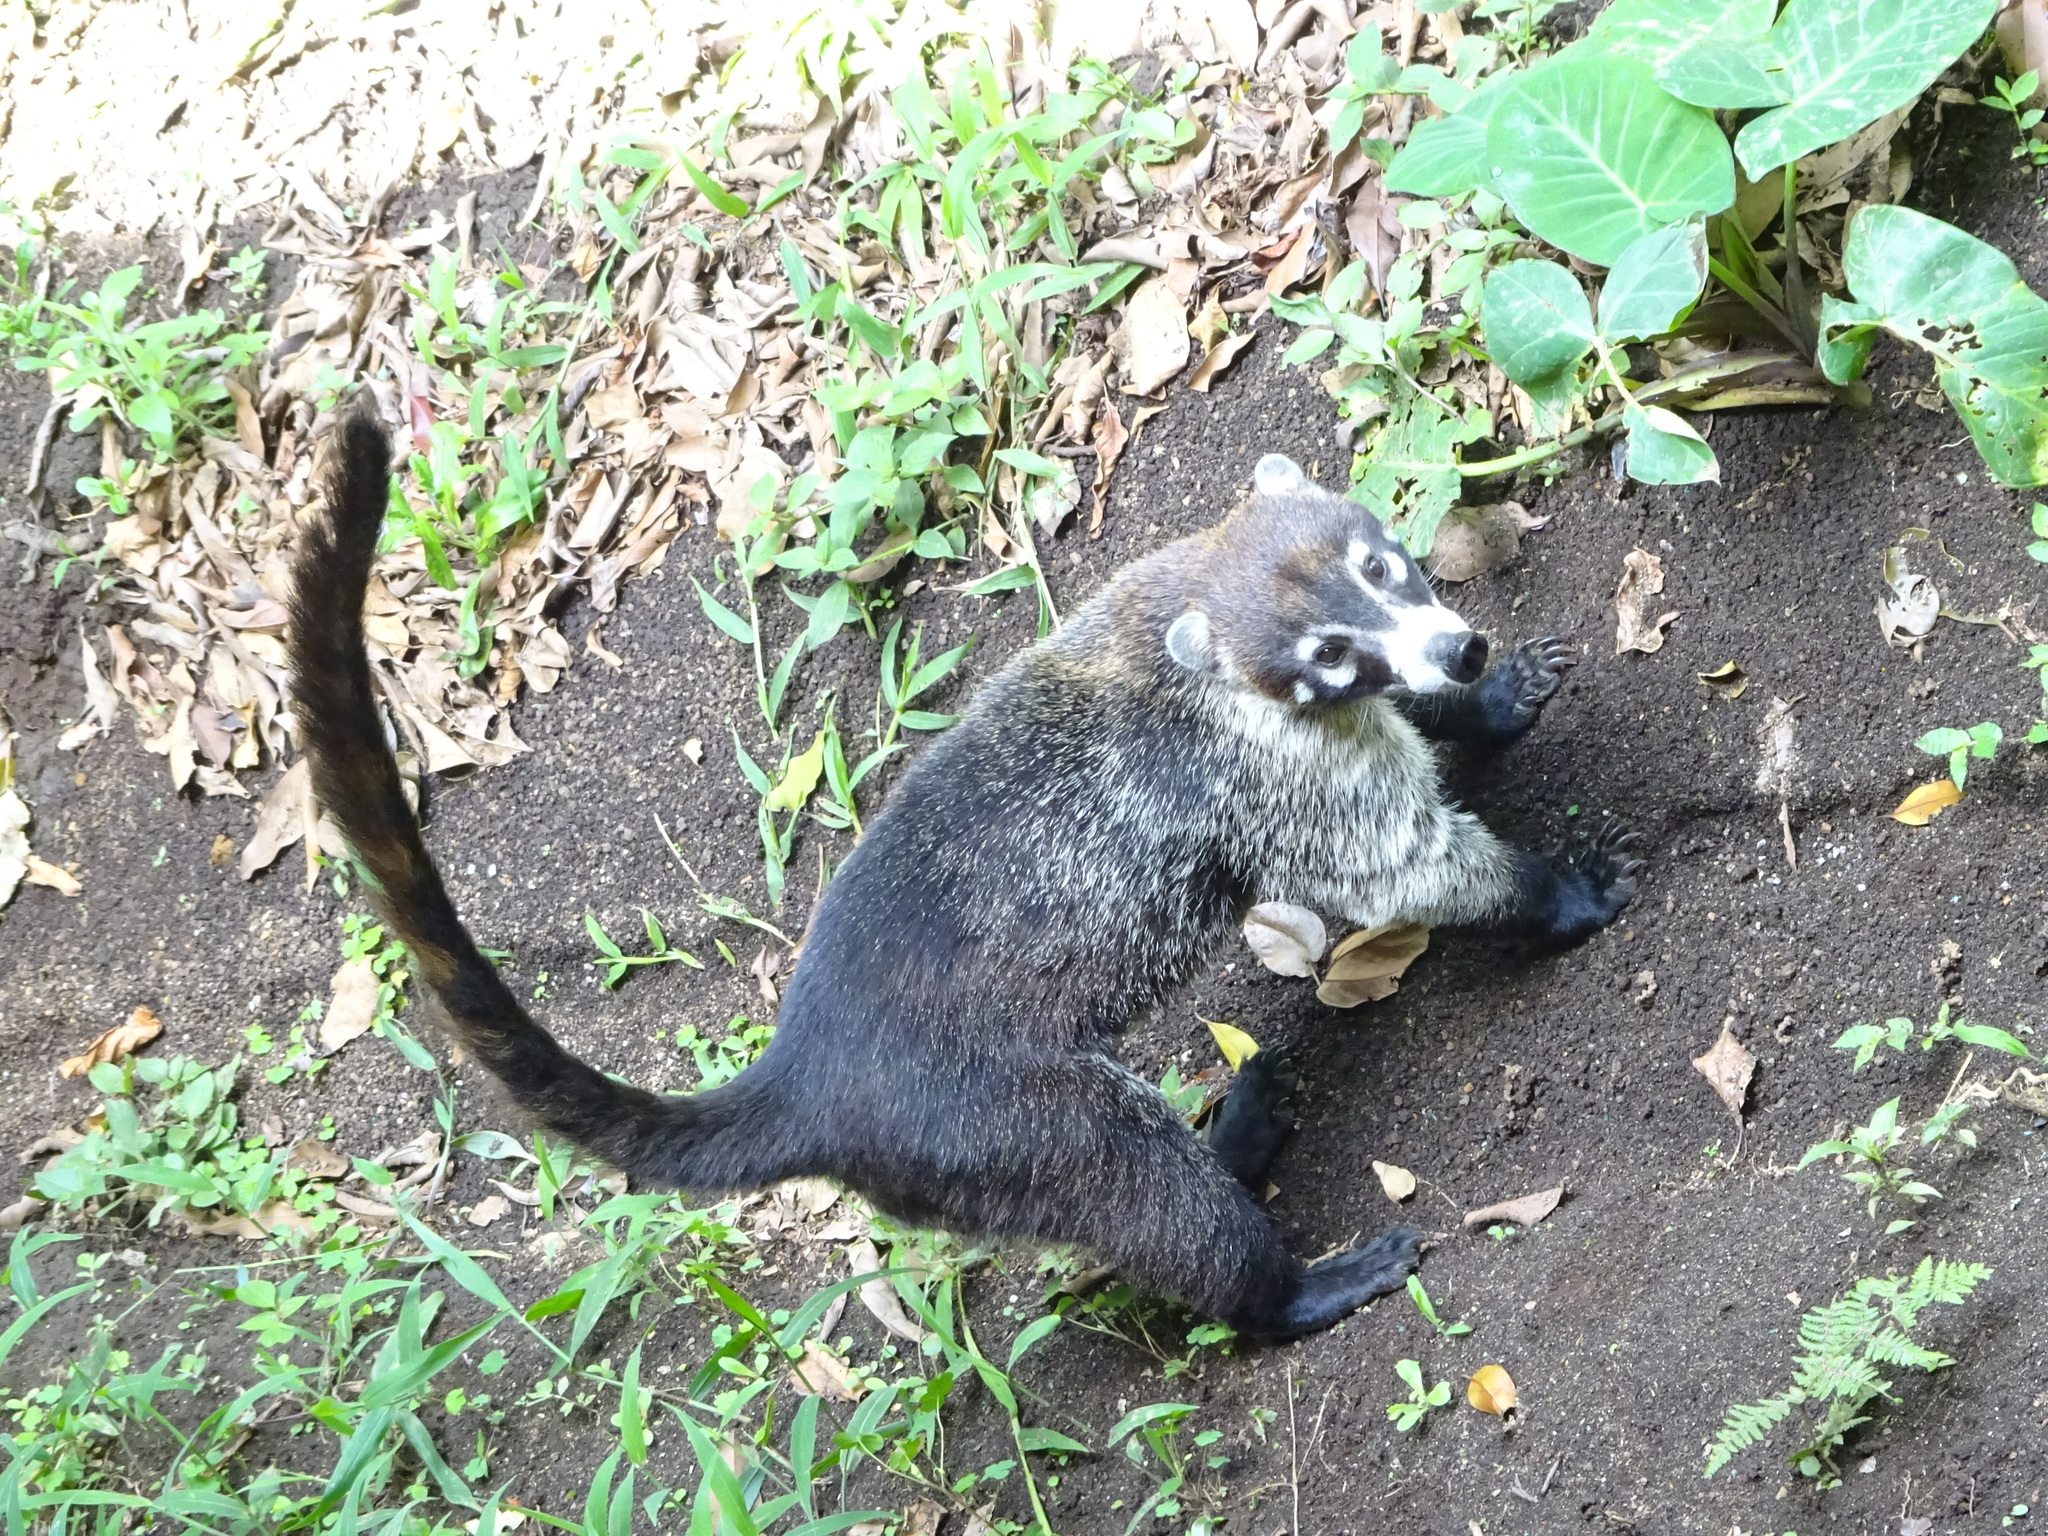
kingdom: Animalia
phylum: Chordata
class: Mammalia
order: Carnivora
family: Procyonidae
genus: Nasua
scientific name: Nasua narica
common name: White-nosed coati
